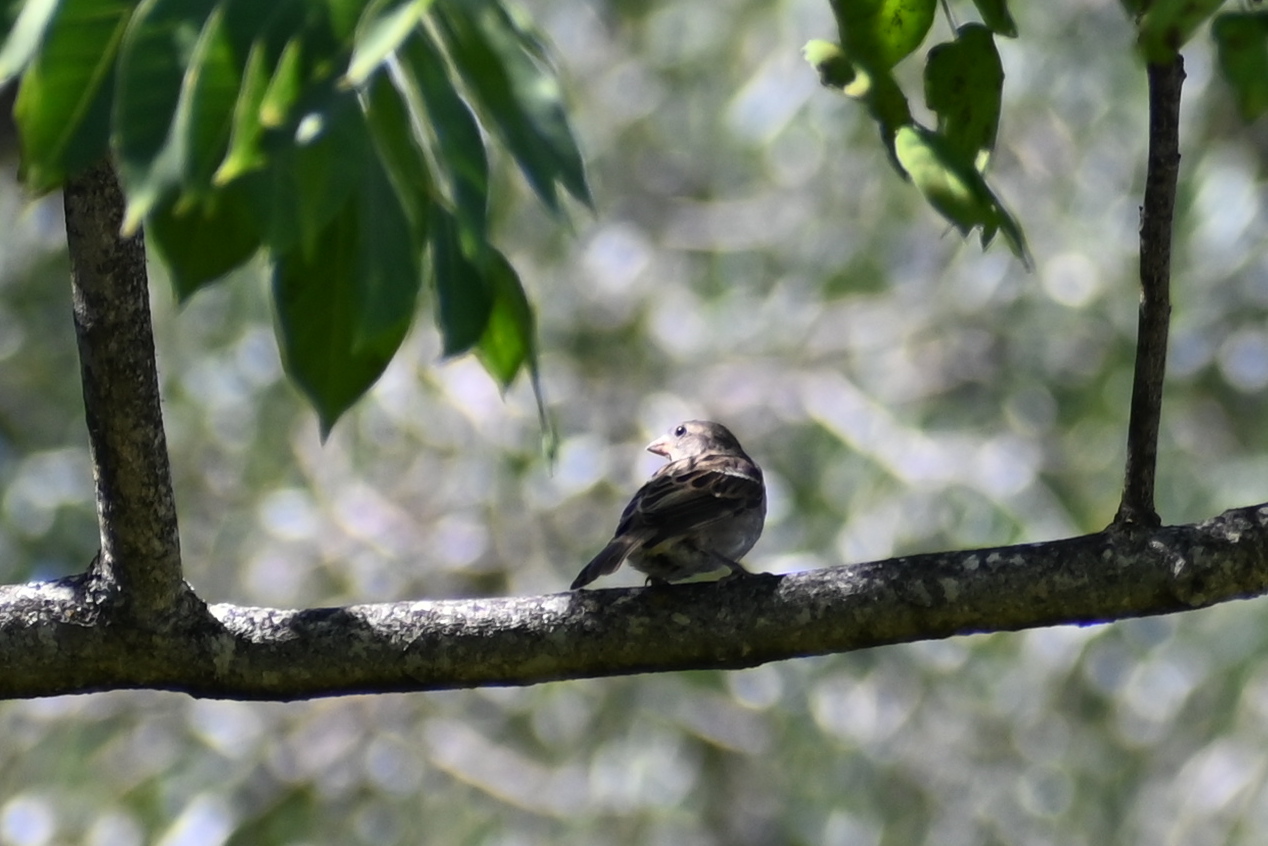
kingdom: Animalia
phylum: Chordata
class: Aves
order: Passeriformes
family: Passeridae
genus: Passer
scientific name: Passer domesticus
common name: House sparrow
